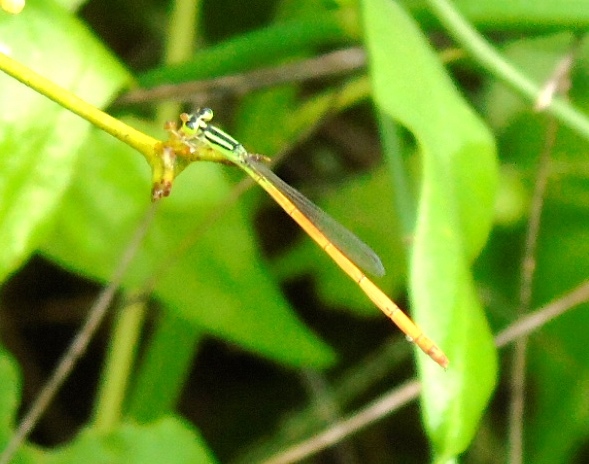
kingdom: Animalia
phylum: Arthropoda
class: Insecta
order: Odonata
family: Coenagrionidae
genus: Leptobasis
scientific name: Leptobasis vacillans
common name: Red-tipped swampdamsel
